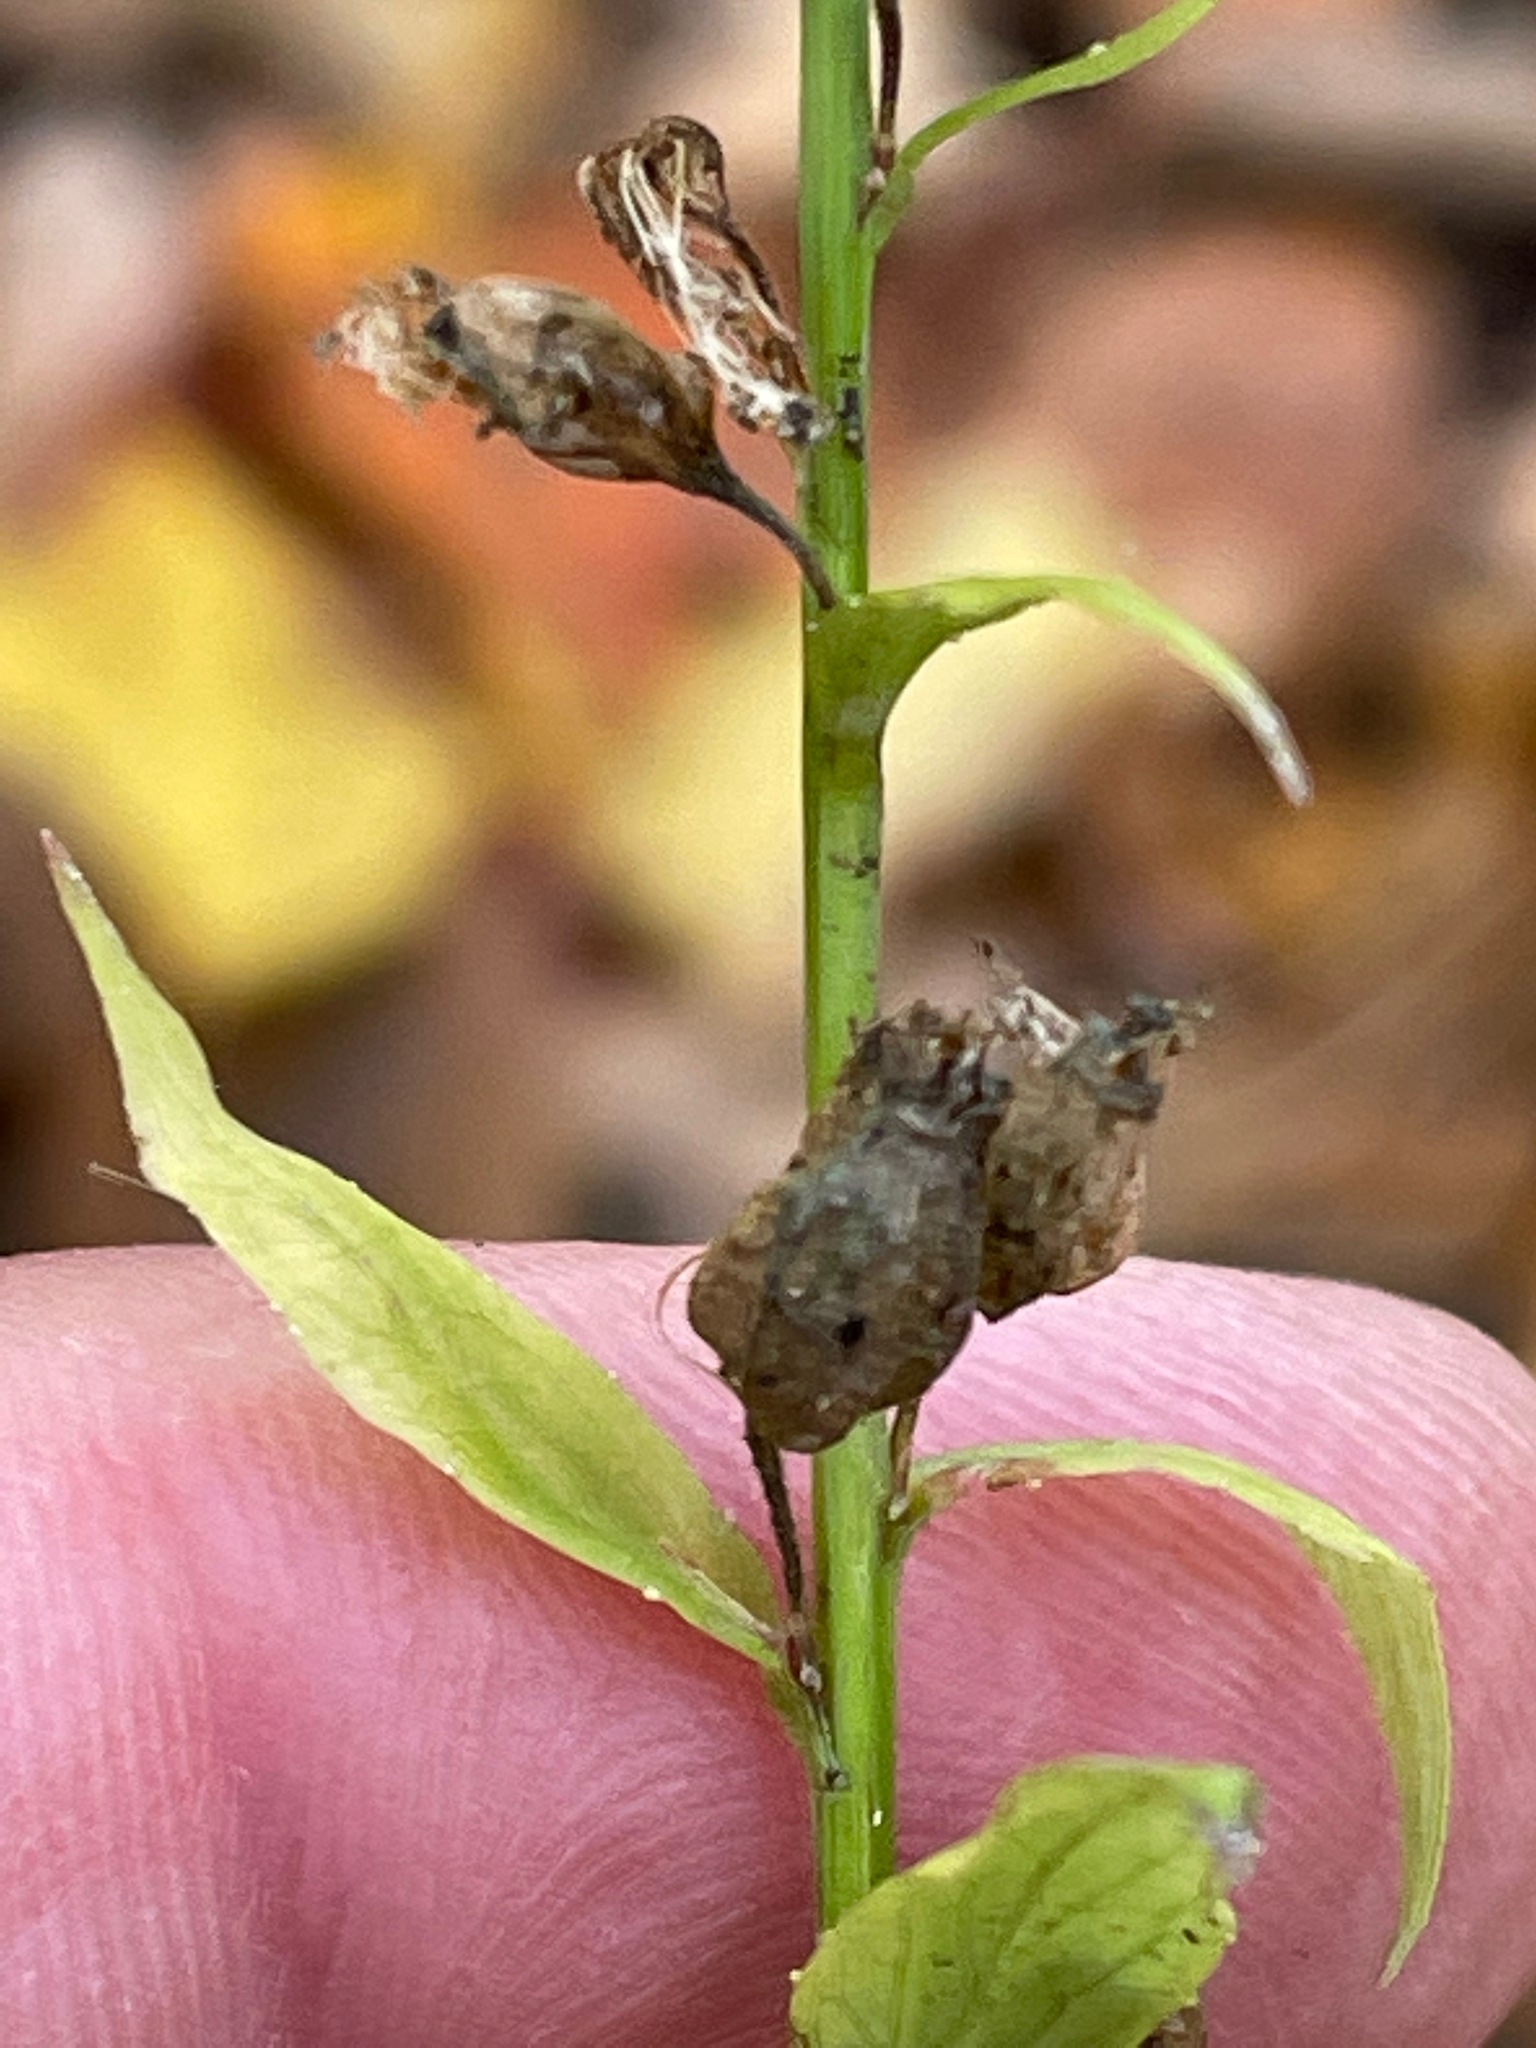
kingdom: Plantae
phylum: Tracheophyta
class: Magnoliopsida
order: Asterales
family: Campanulaceae
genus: Lobelia
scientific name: Lobelia inflata
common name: Indian tobacco
